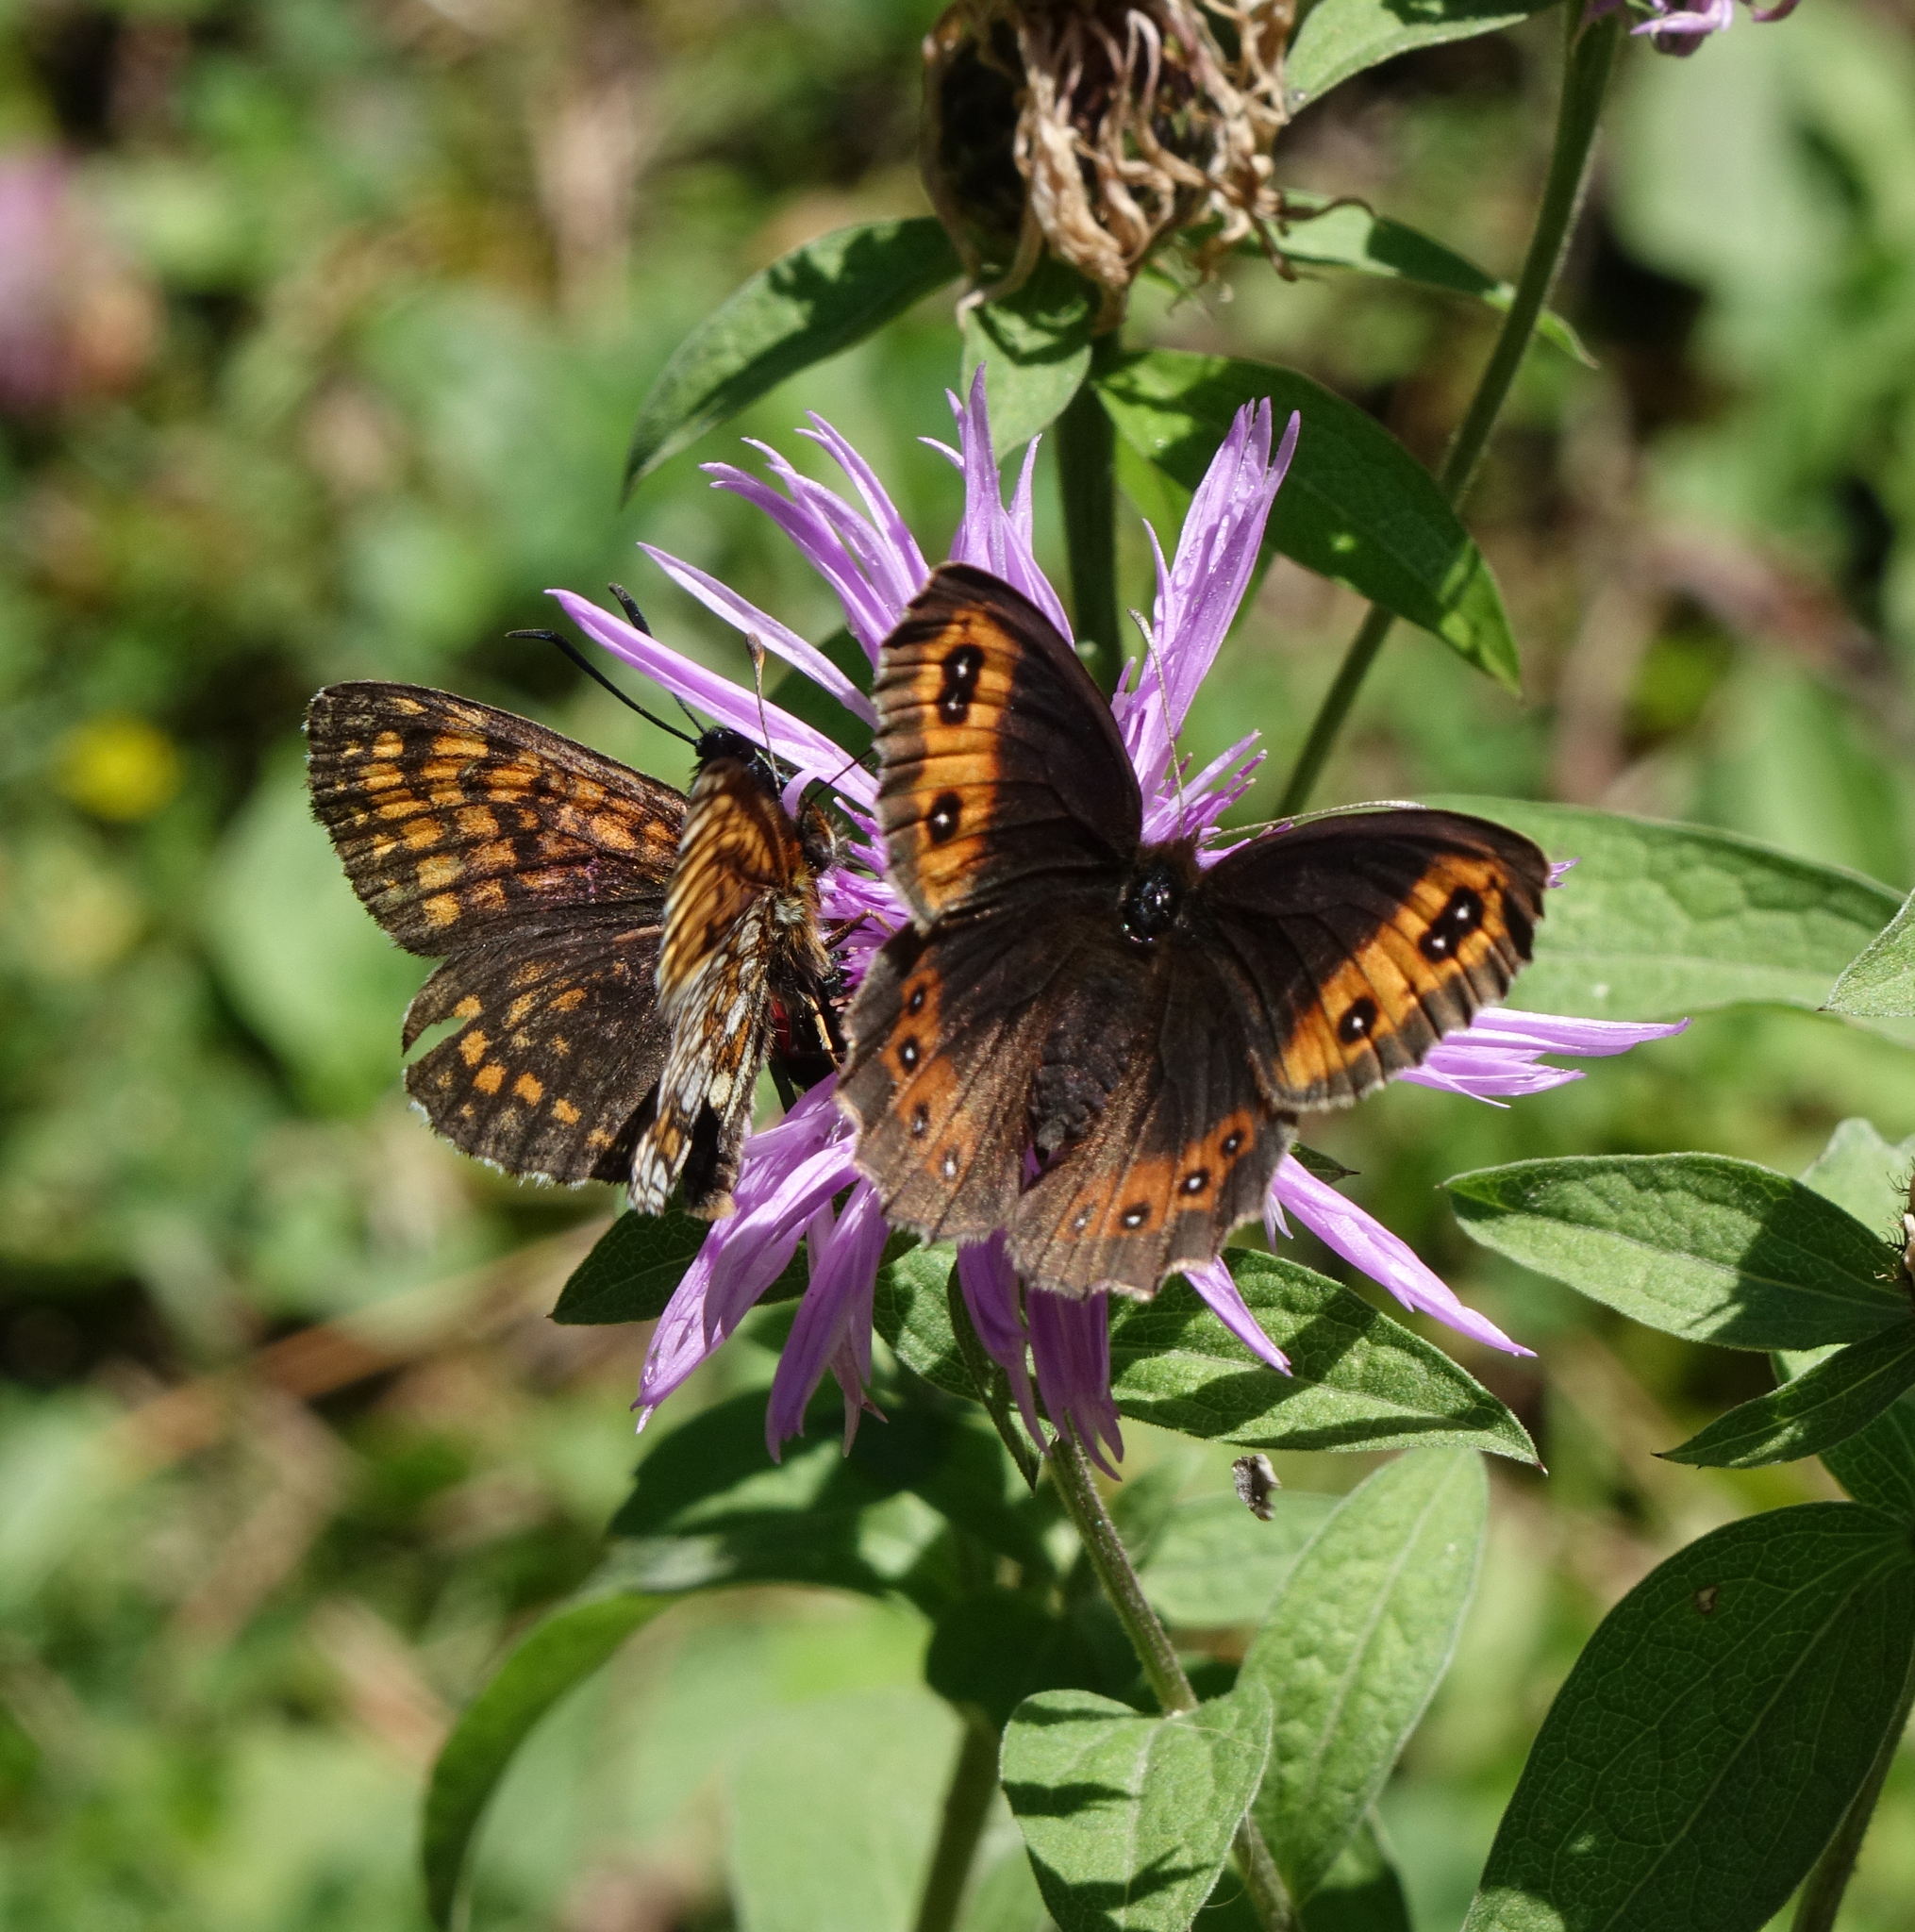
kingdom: Animalia
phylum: Arthropoda
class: Insecta
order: Lepidoptera
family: Nymphalidae
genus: Erebia
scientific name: Erebia aethiops
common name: Scotch argus
